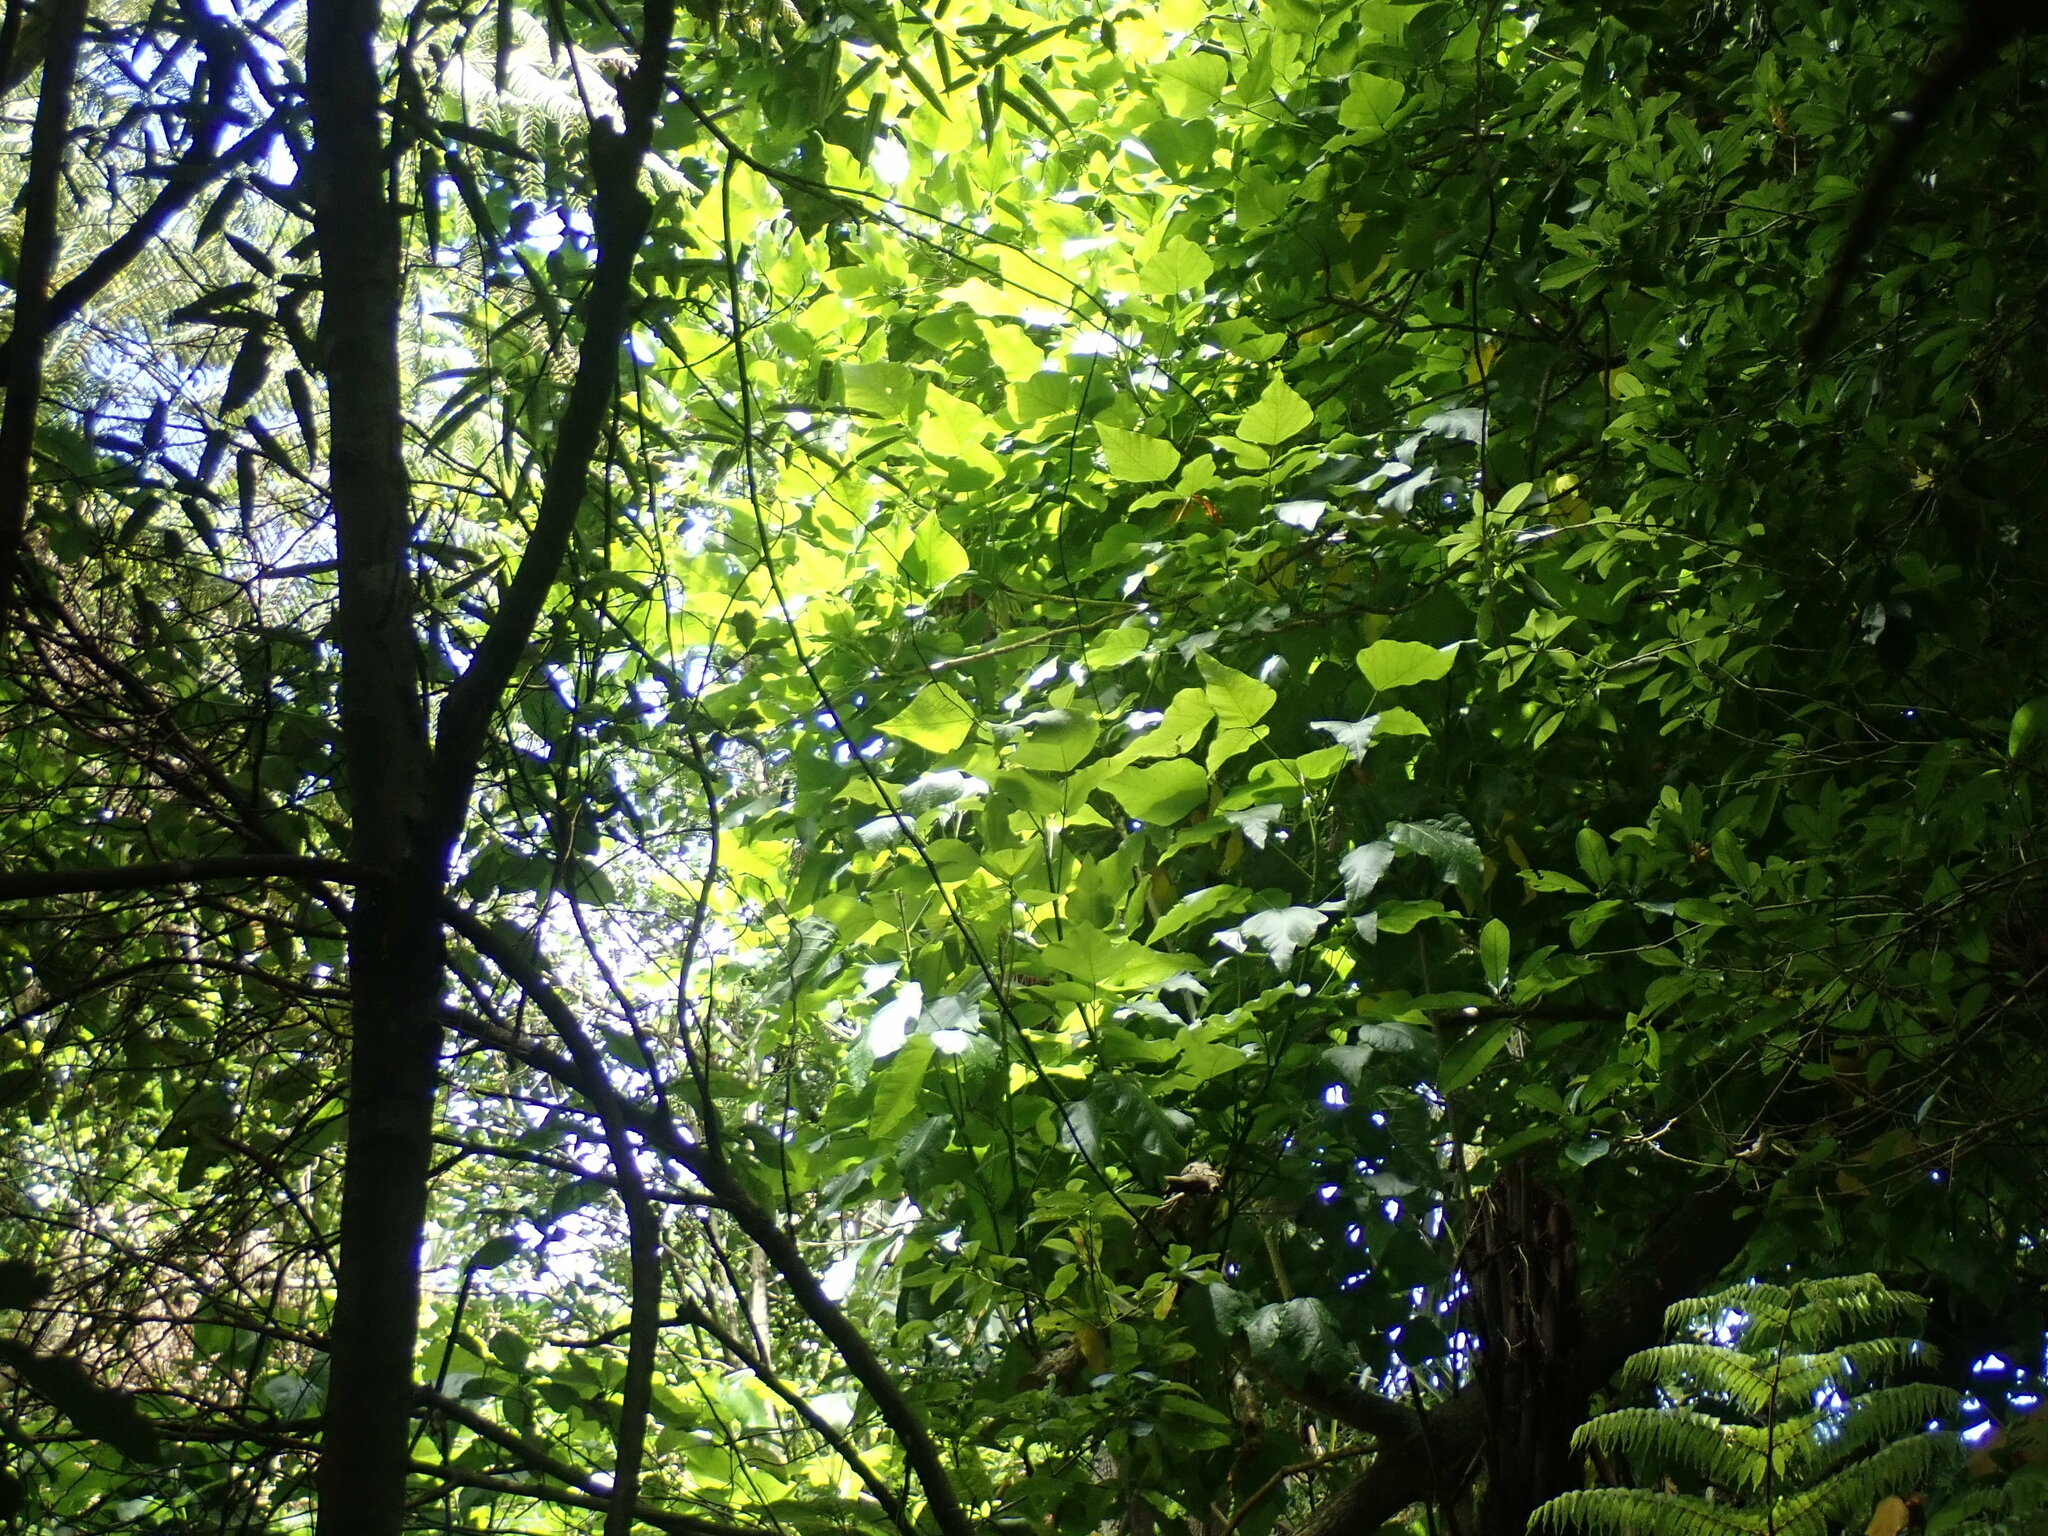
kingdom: Plantae
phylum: Tracheophyta
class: Magnoliopsida
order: Rosales
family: Rosaceae
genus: Rubus
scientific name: Rubus cissoides
